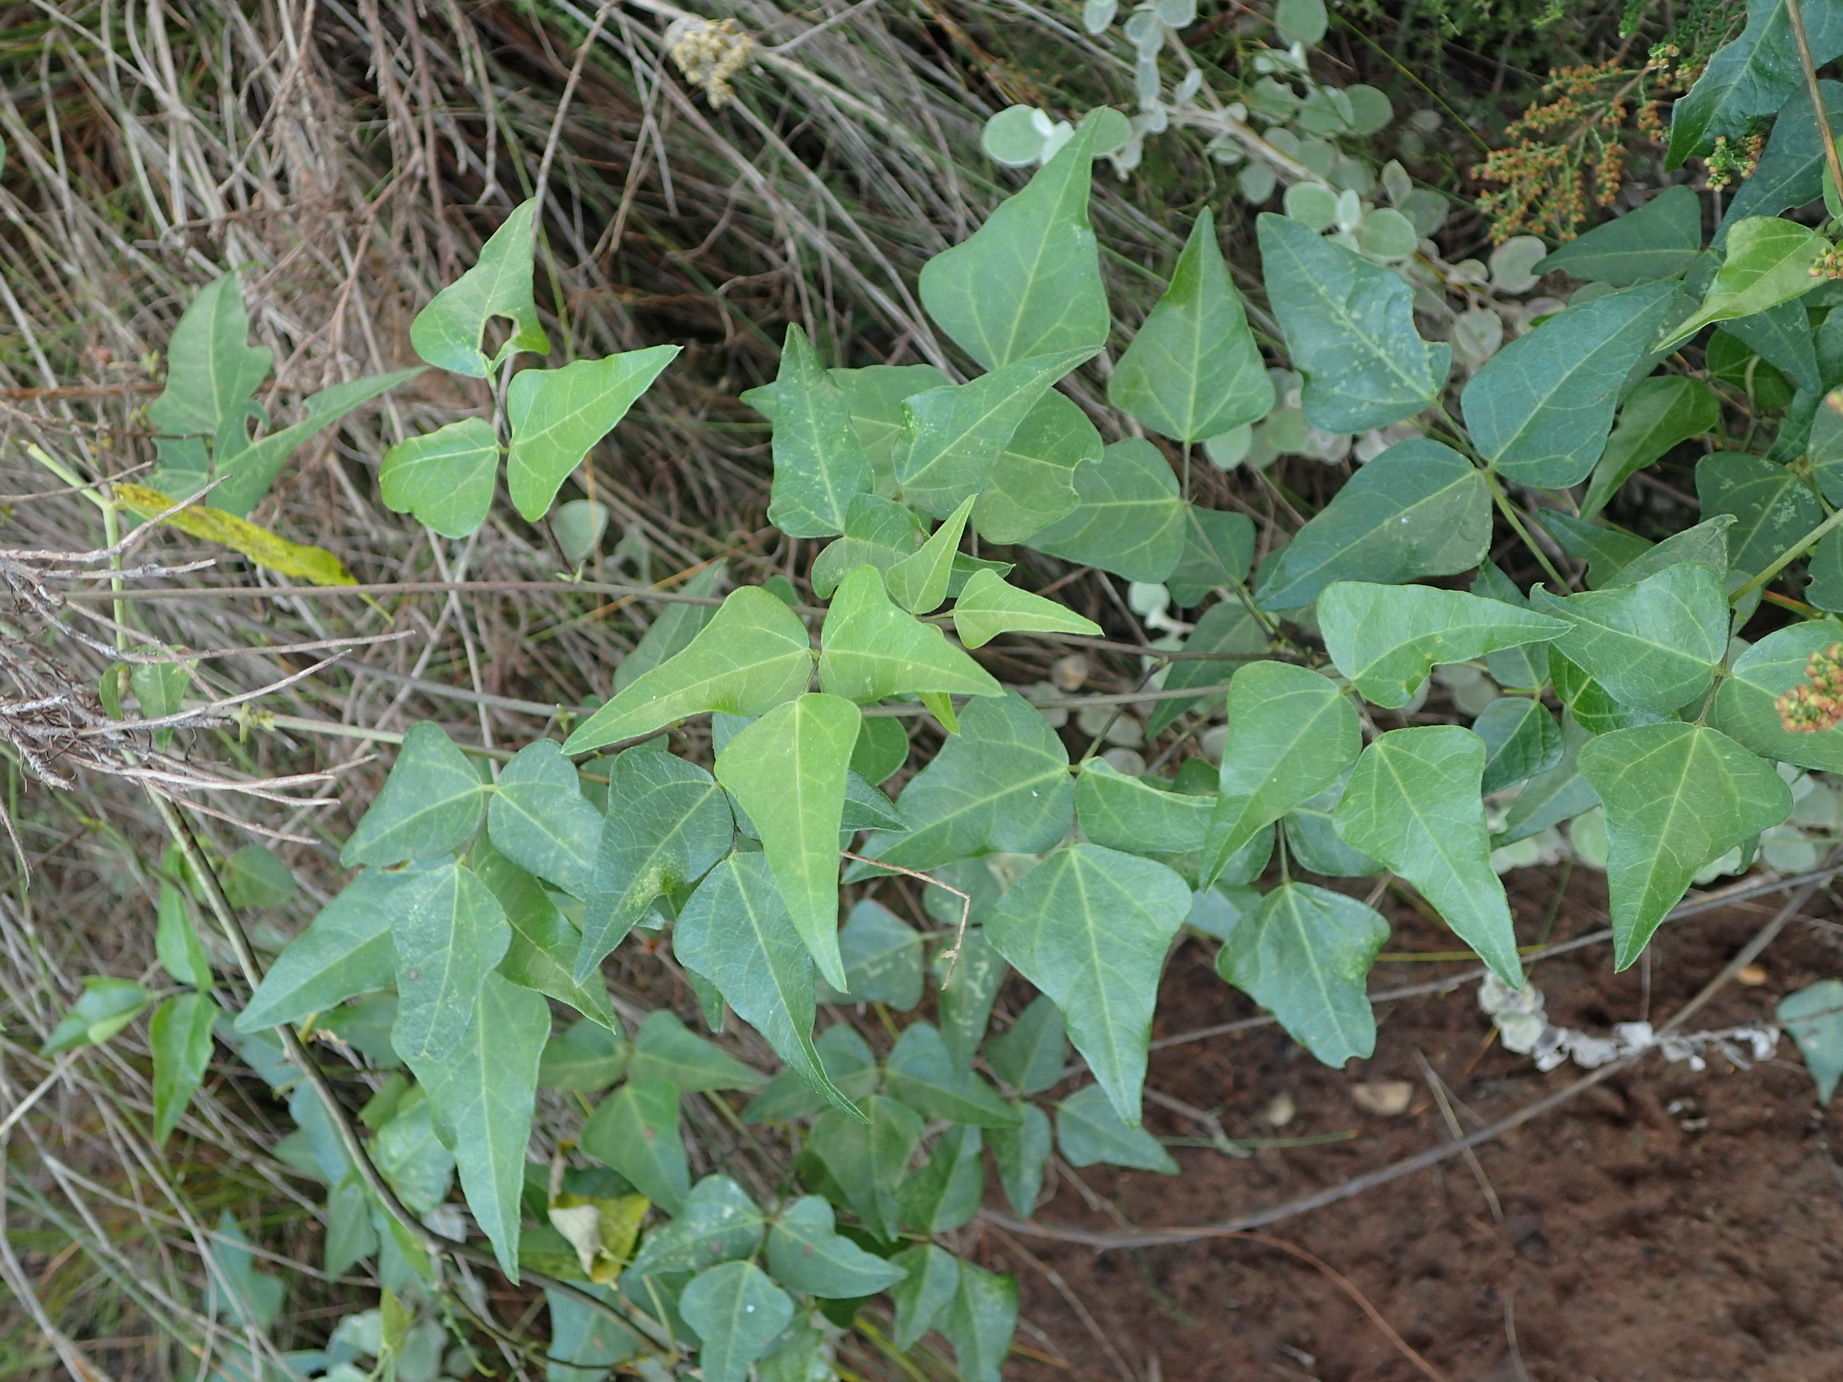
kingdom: Plantae
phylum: Tracheophyta
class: Magnoliopsida
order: Fabales
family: Fabaceae
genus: Dipogon
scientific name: Dipogon lignosus
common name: Okie bean
